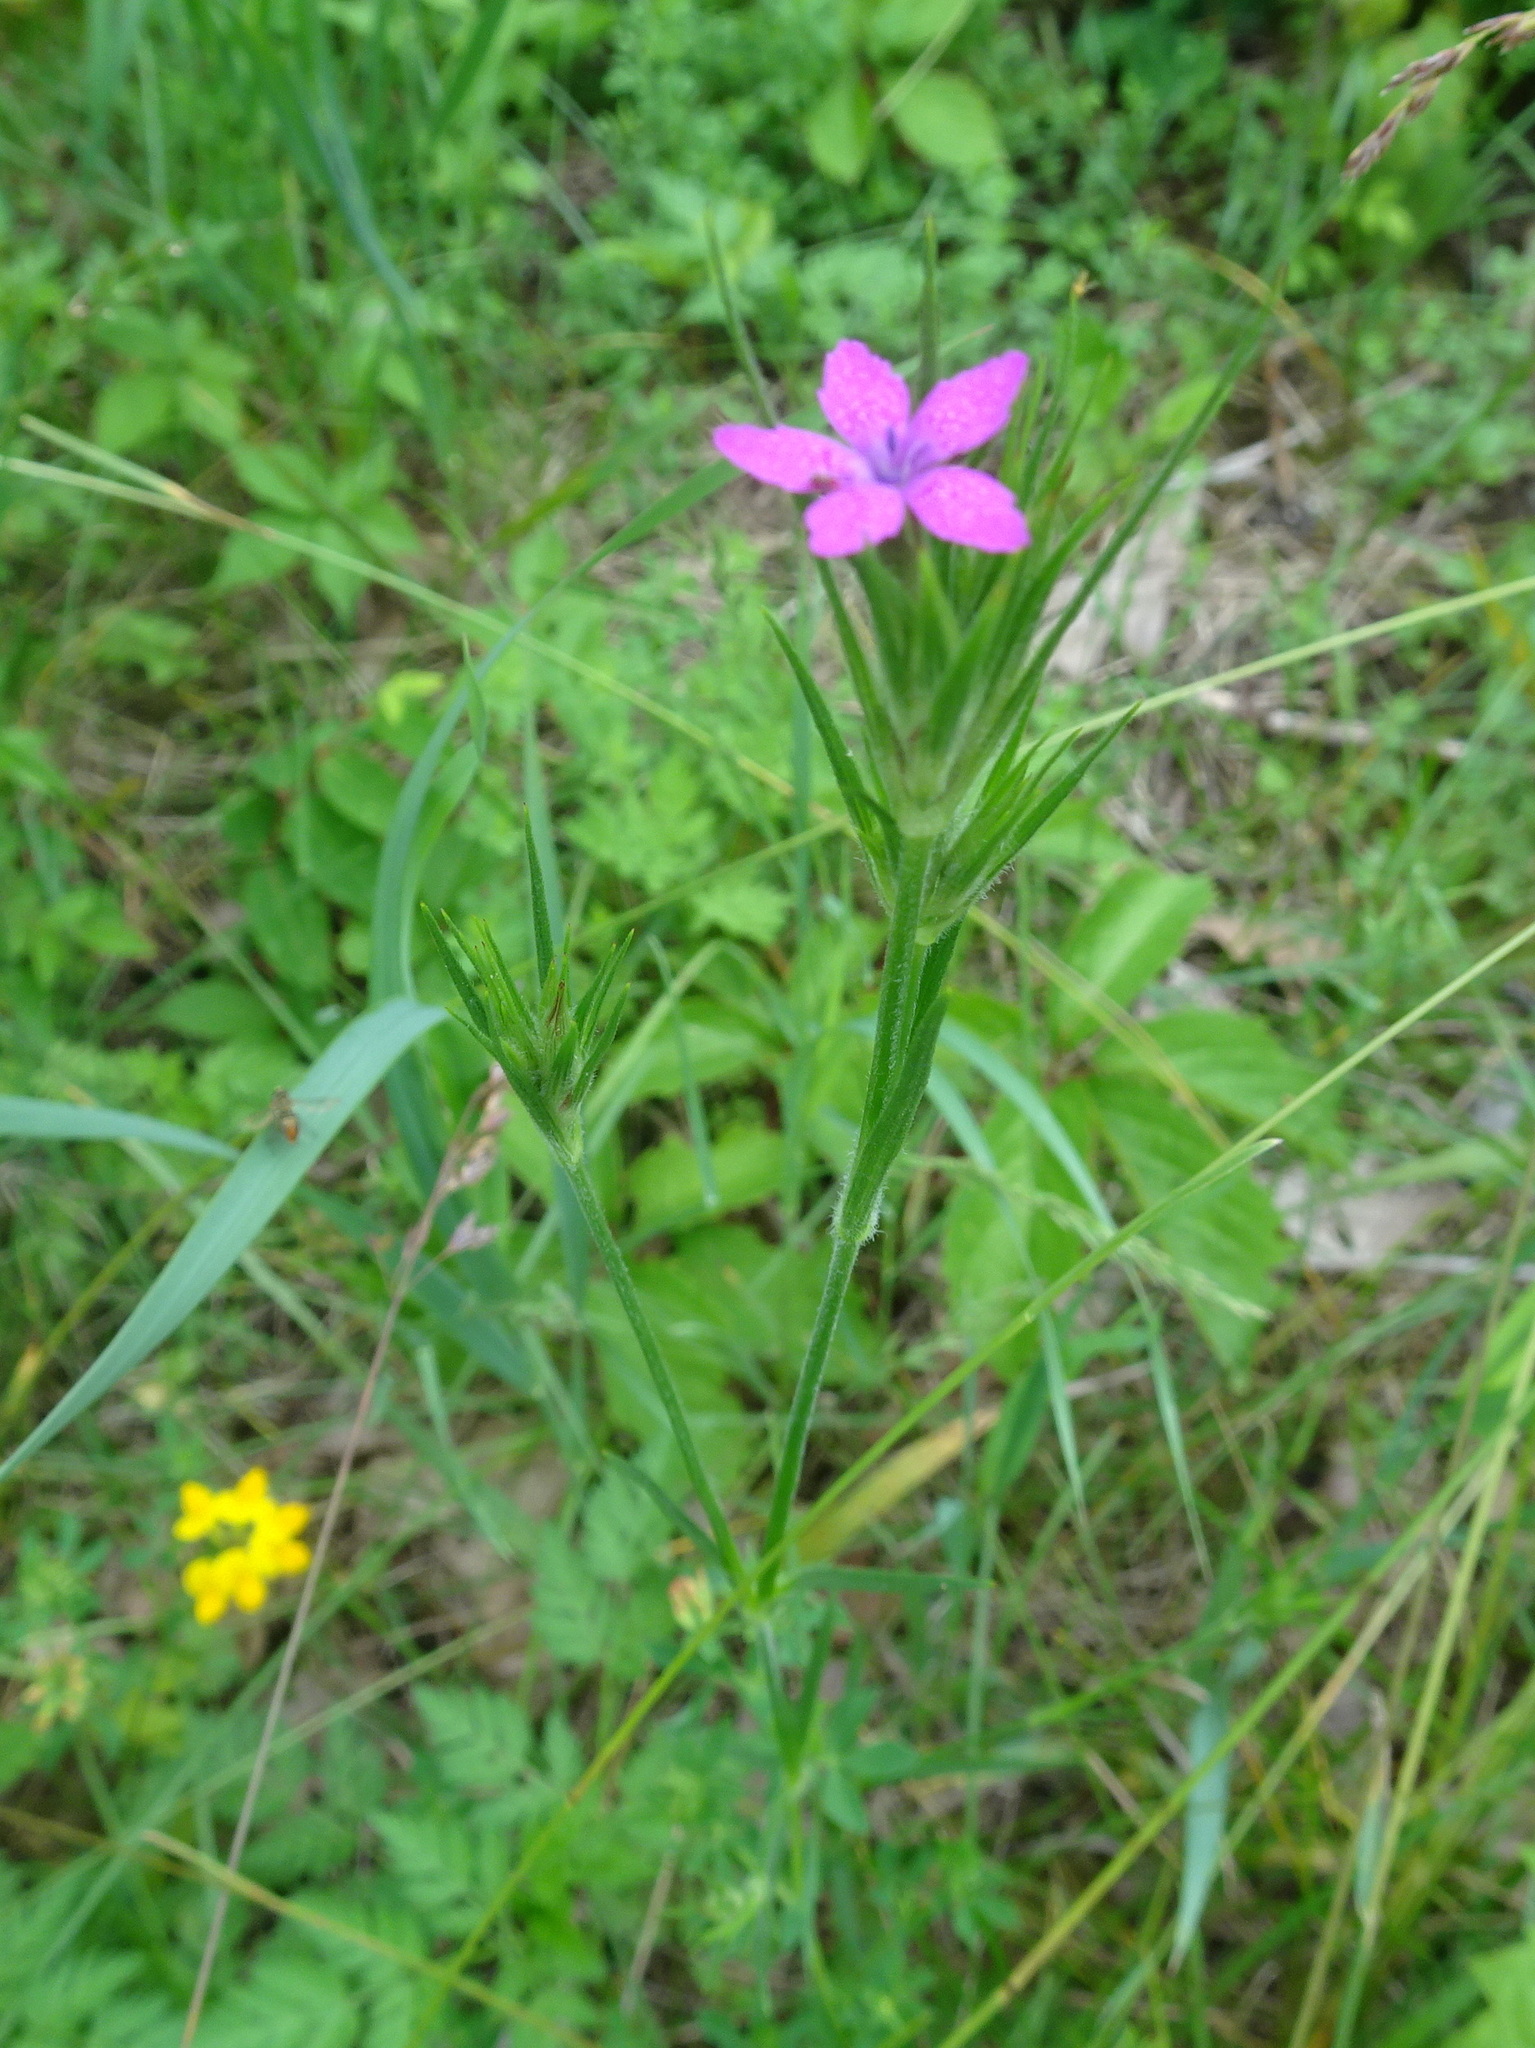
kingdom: Plantae
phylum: Tracheophyta
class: Magnoliopsida
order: Caryophyllales
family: Caryophyllaceae
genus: Dianthus
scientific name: Dianthus armeria
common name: Deptford pink
